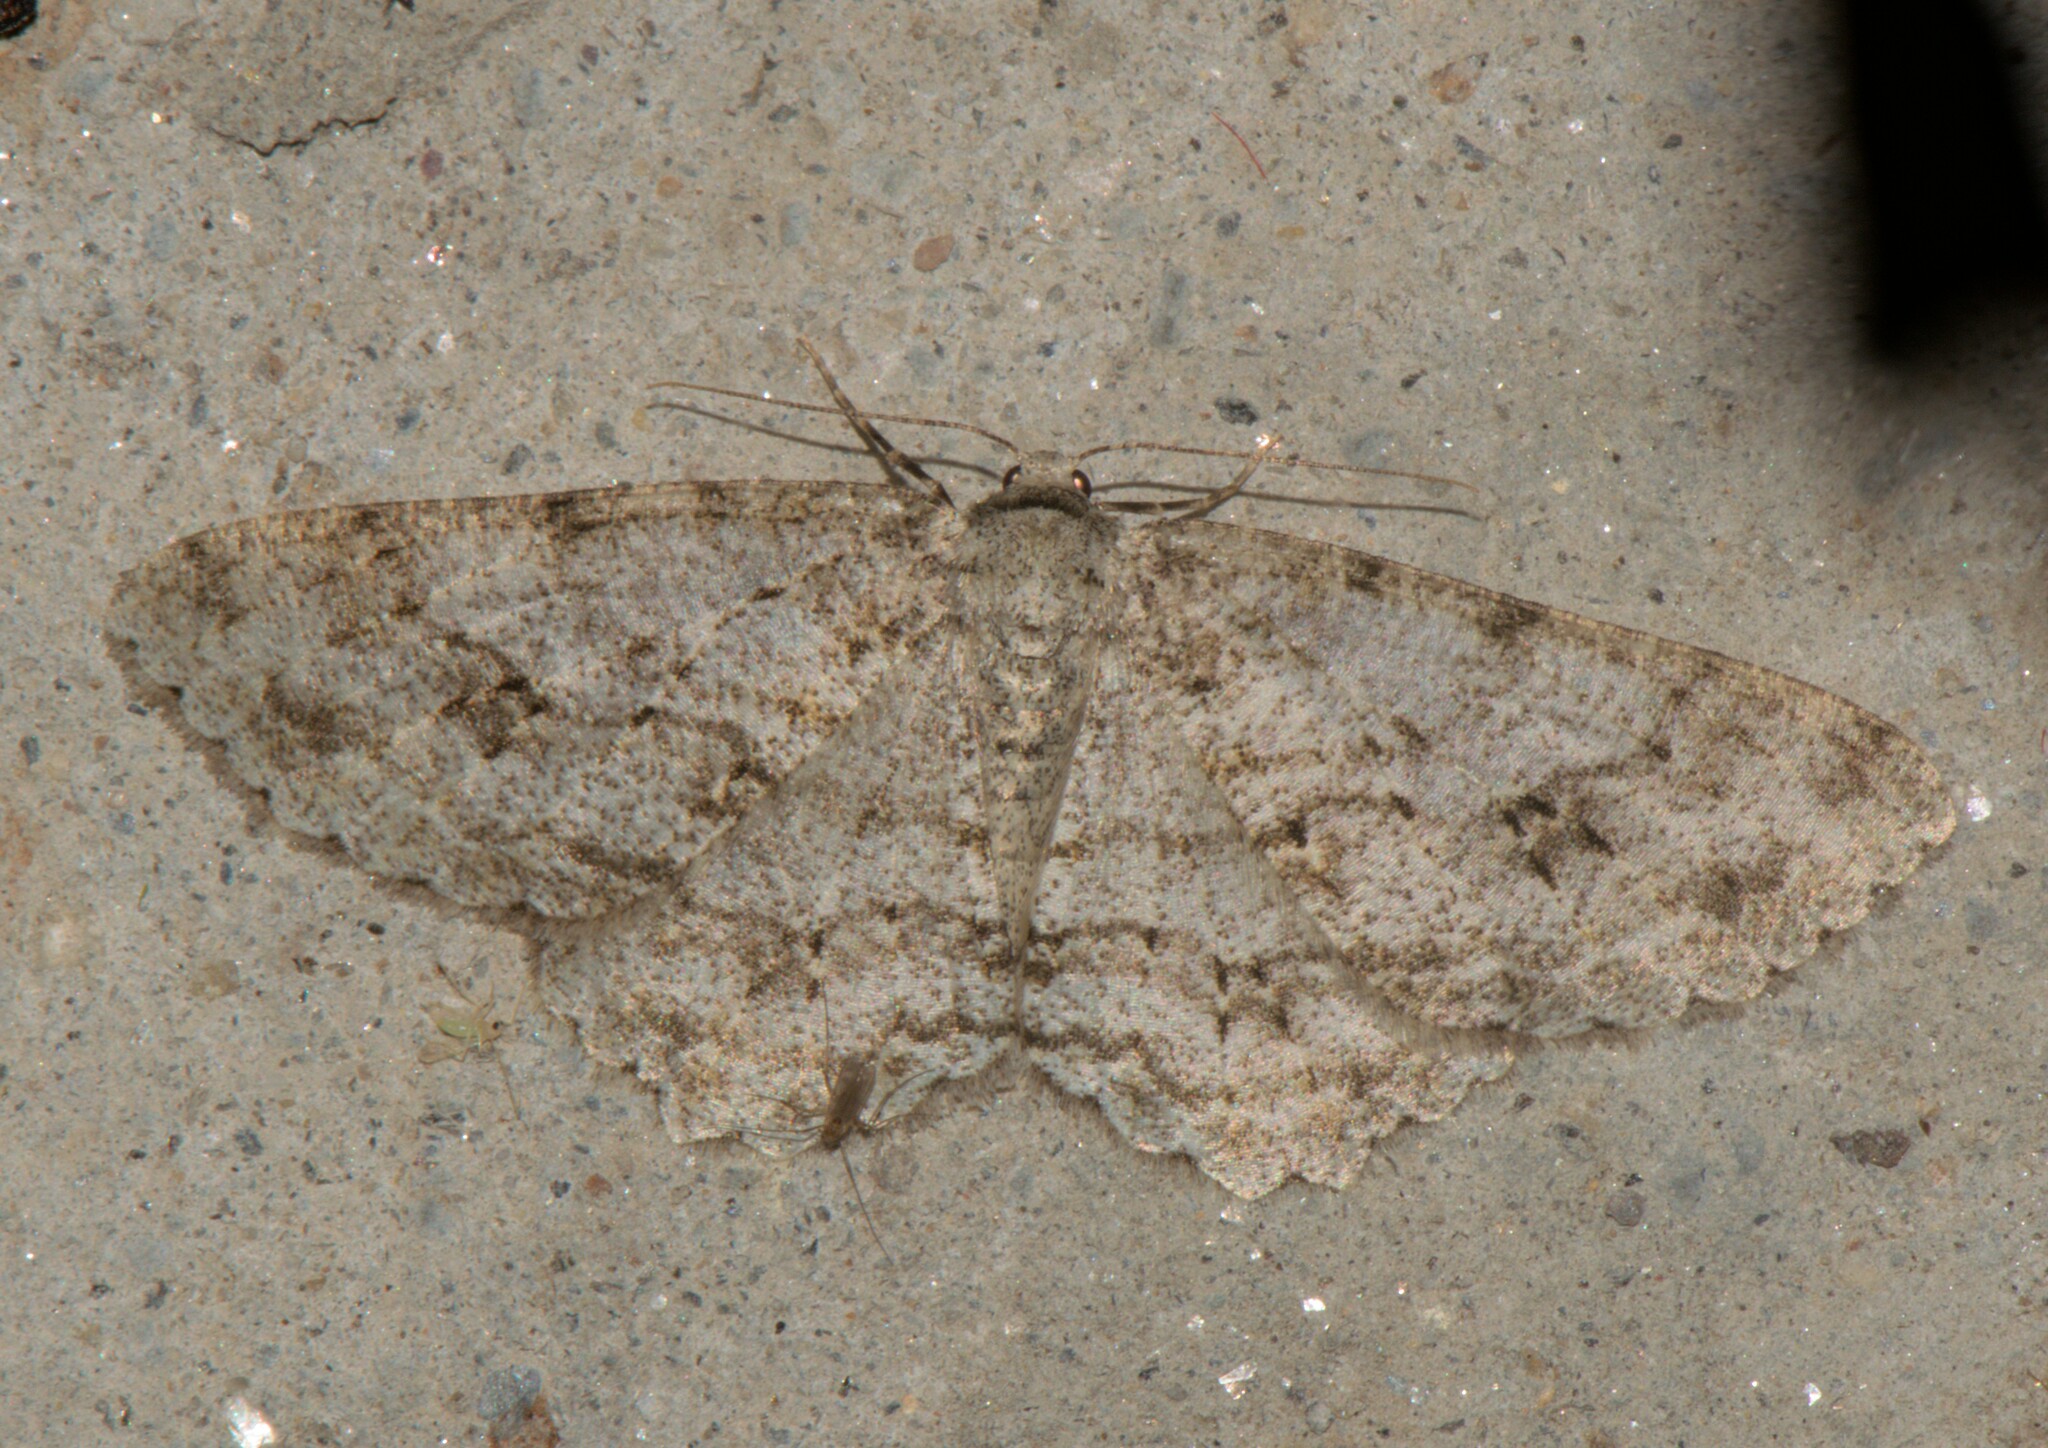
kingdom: Animalia
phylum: Arthropoda
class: Insecta
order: Lepidoptera
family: Geometridae
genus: Ectropis
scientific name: Ectropis crepuscularia
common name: Engrailed
